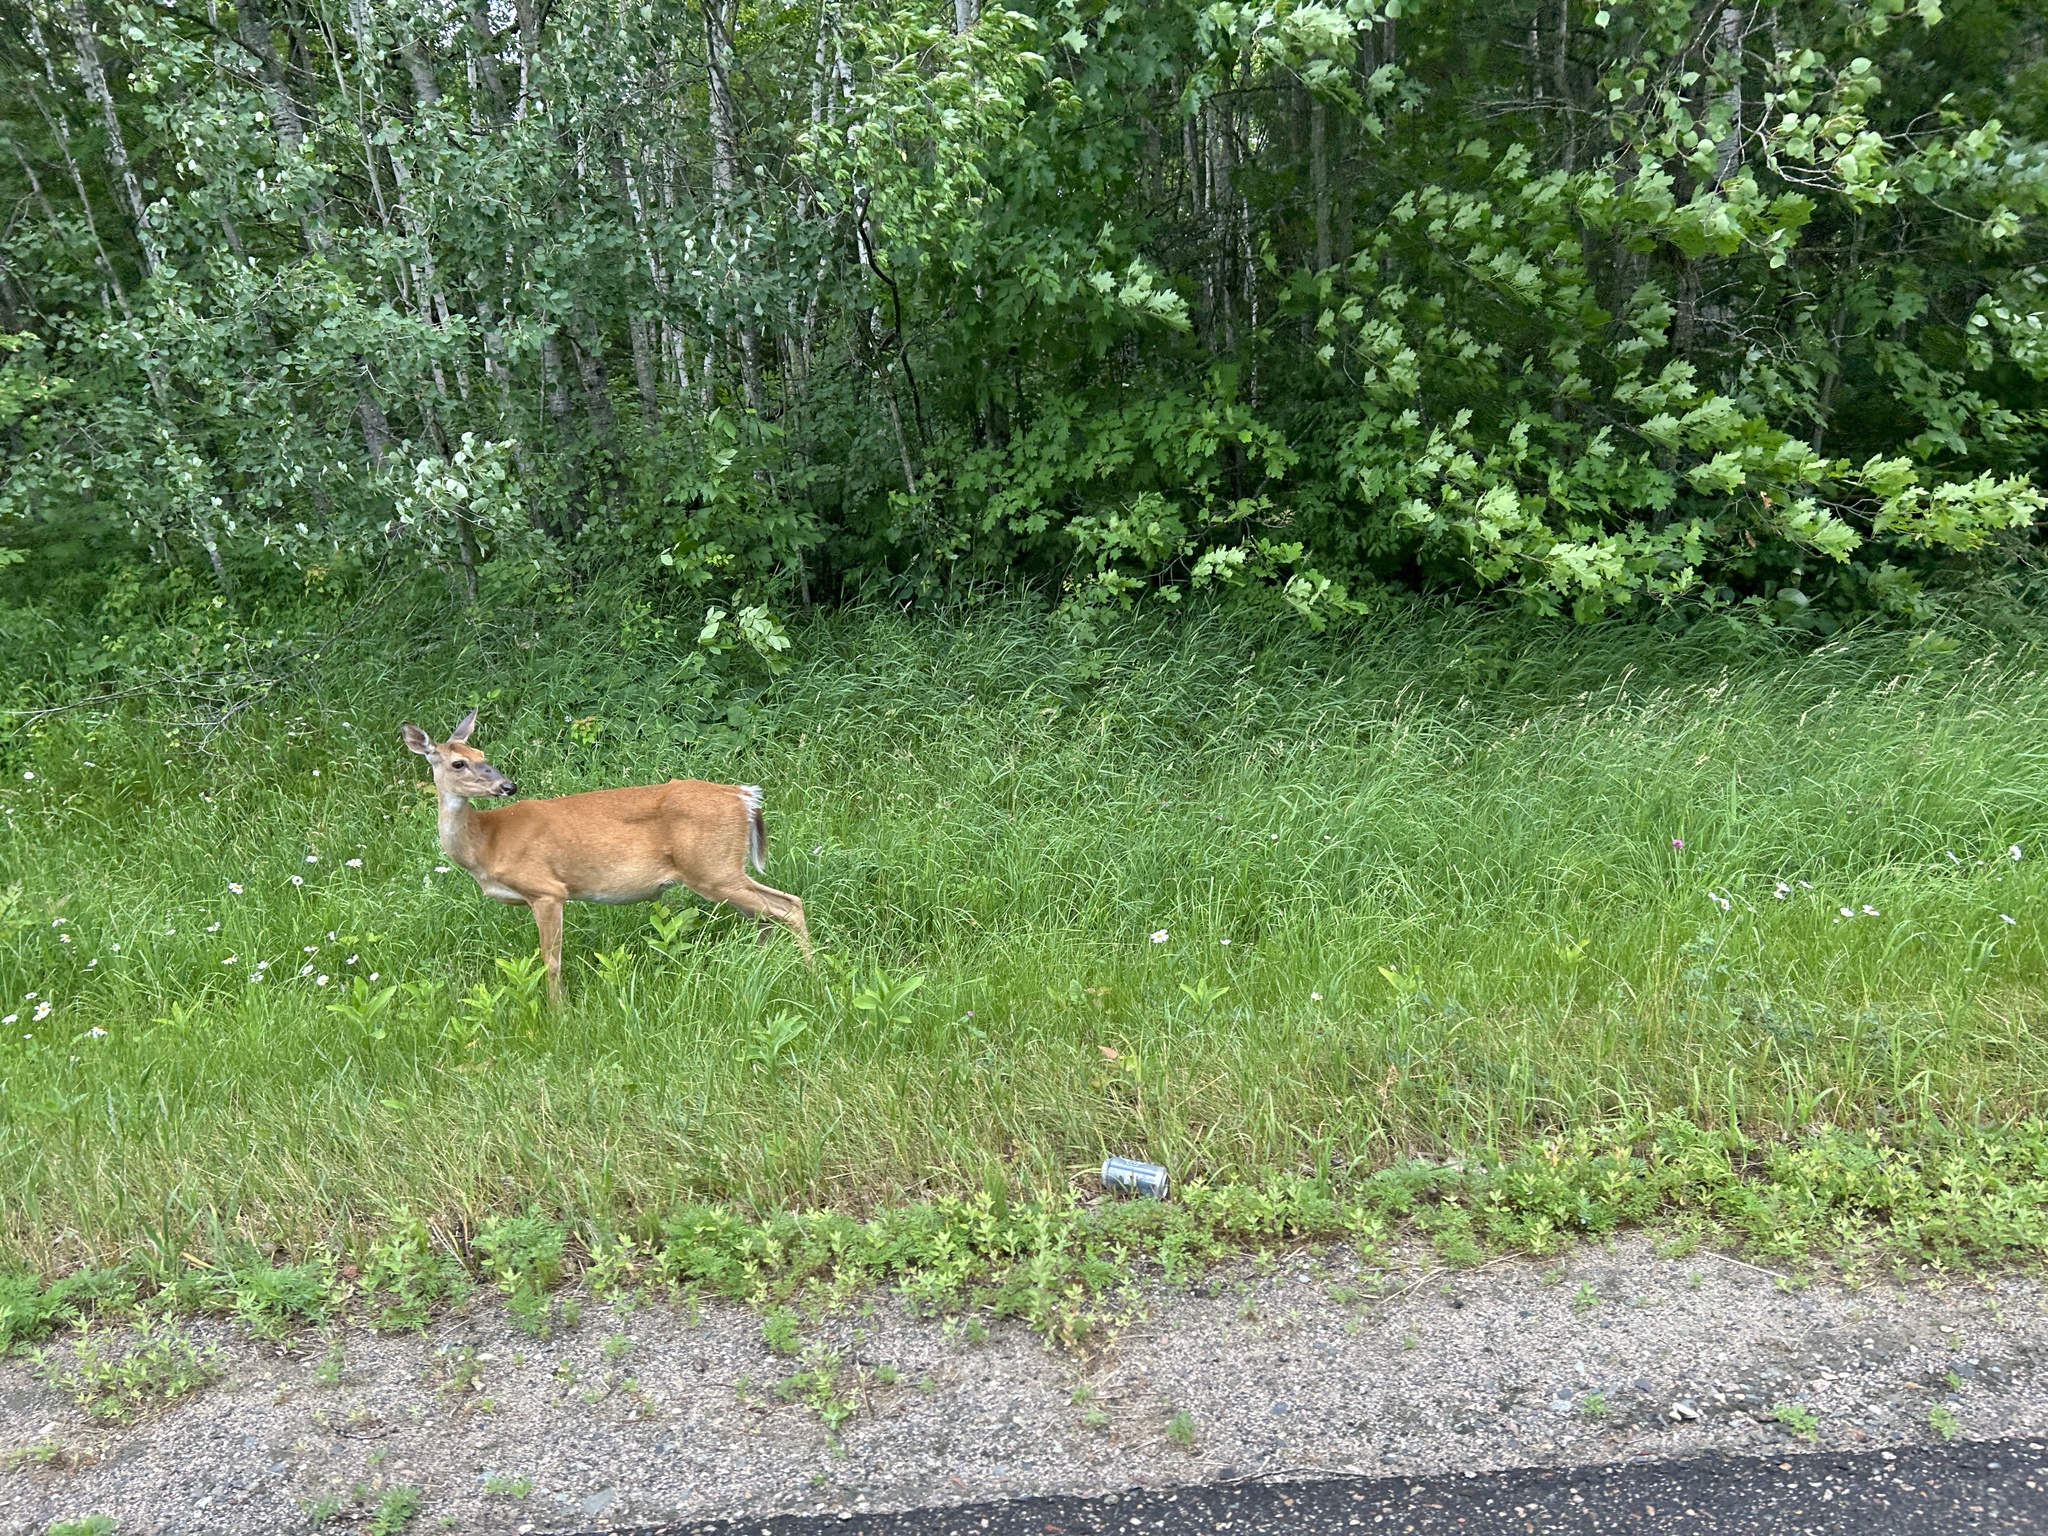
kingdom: Animalia
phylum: Chordata
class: Mammalia
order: Artiodactyla
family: Cervidae
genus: Odocoileus
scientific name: Odocoileus virginianus
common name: White-tailed deer
